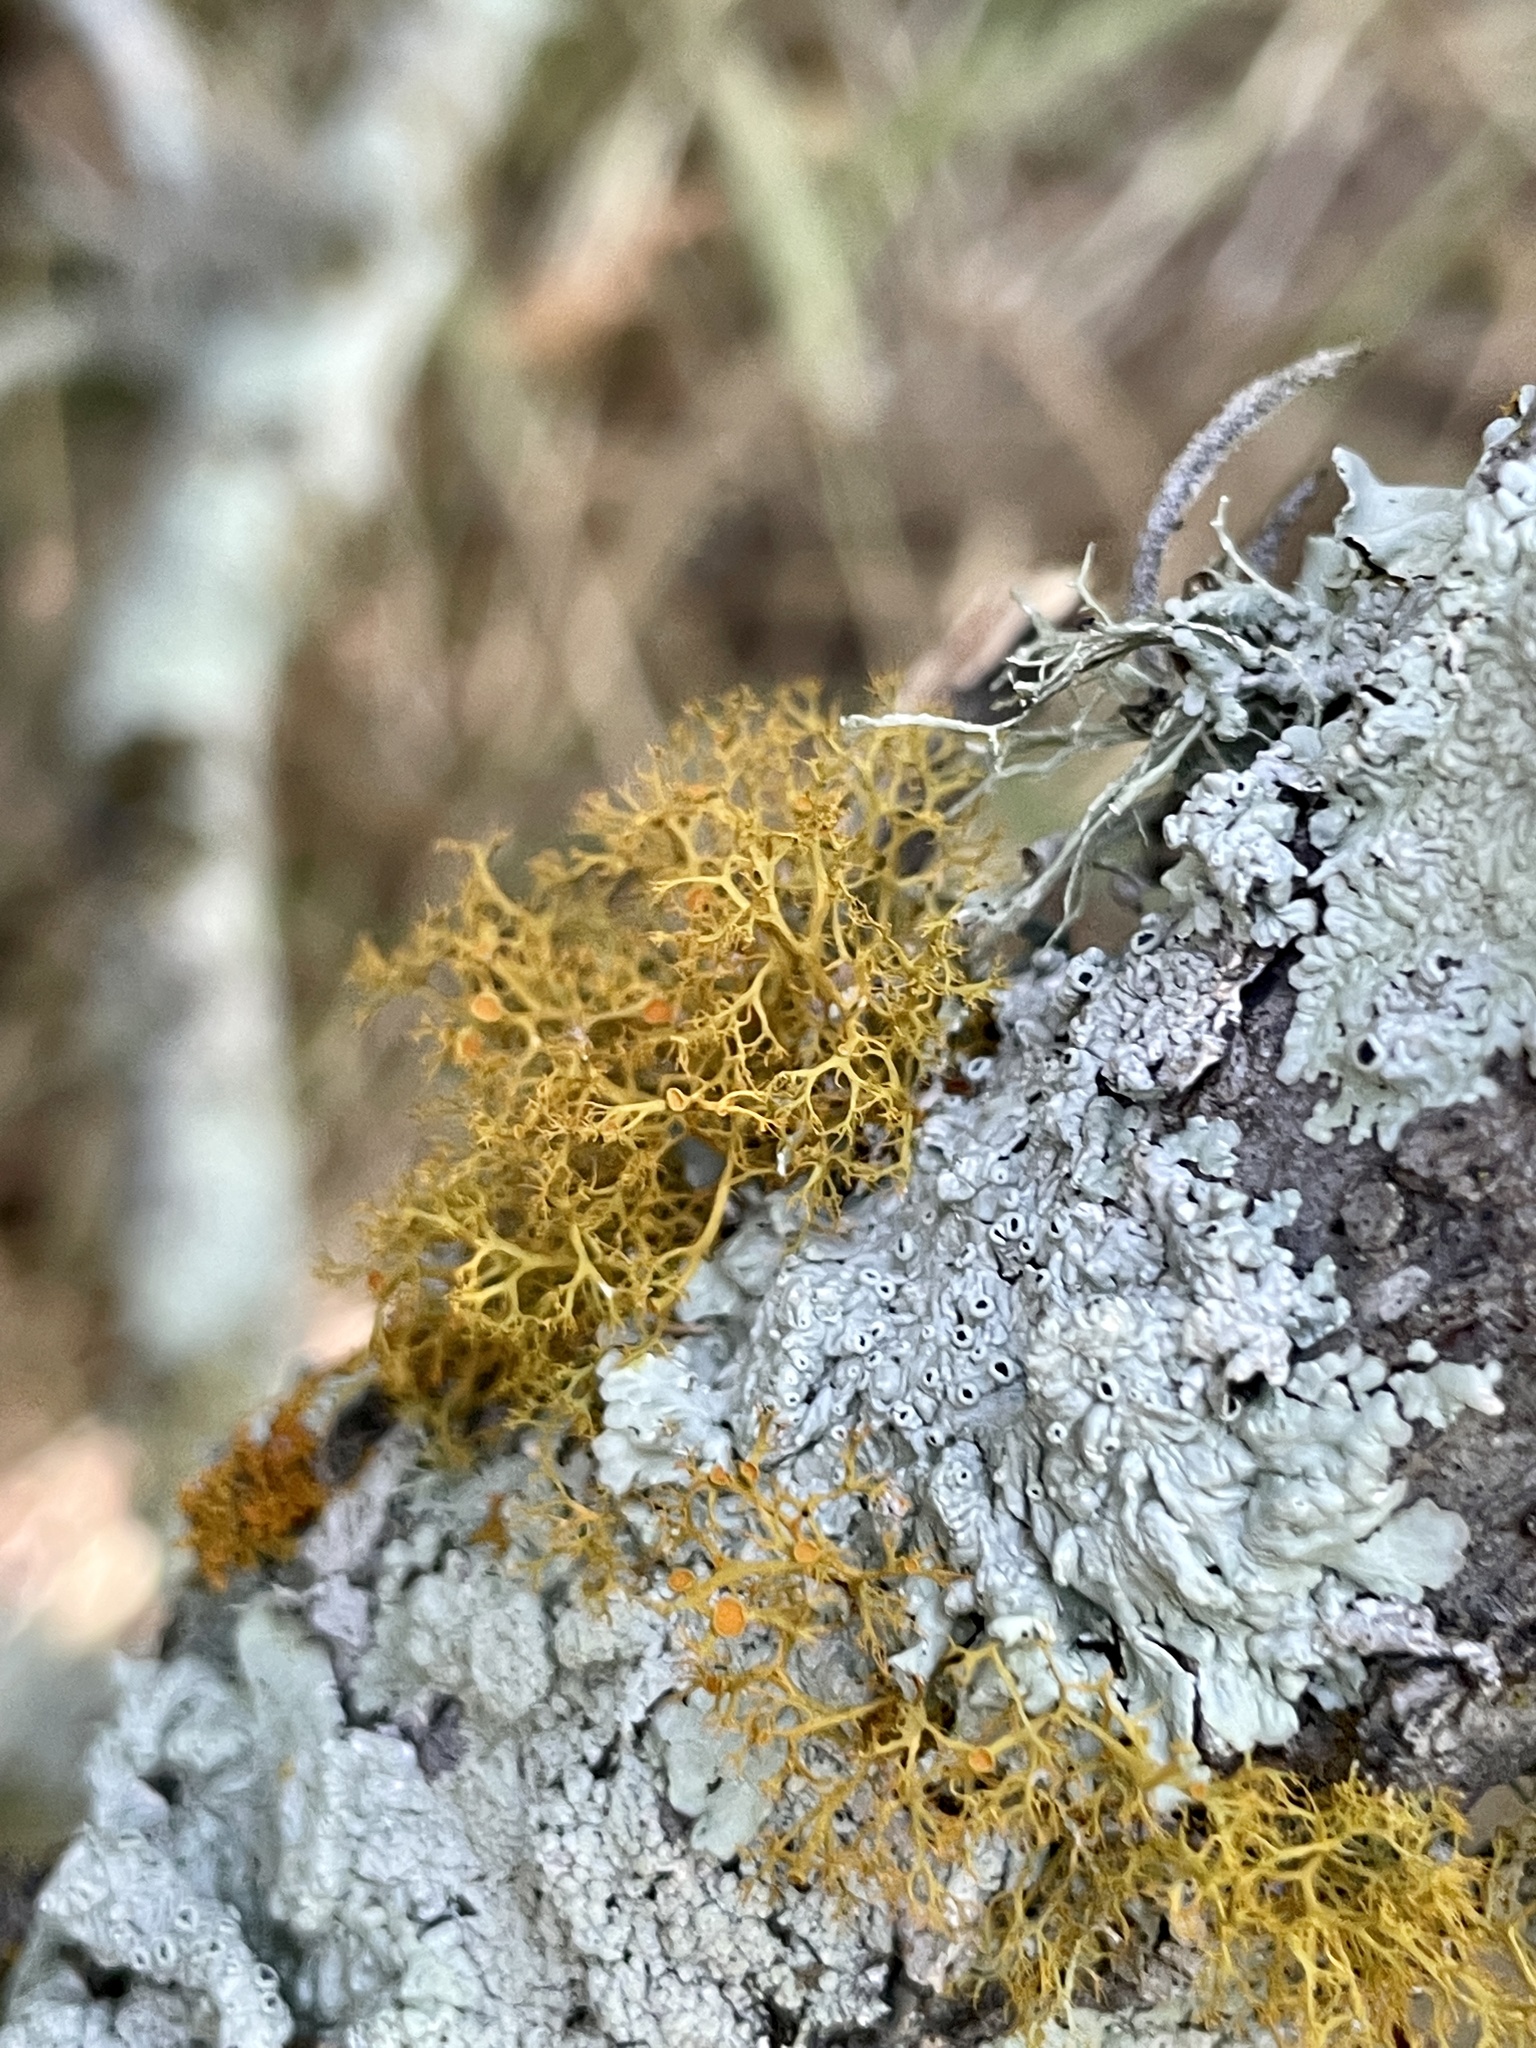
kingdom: Fungi
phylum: Ascomycota
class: Lecanoromycetes
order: Teloschistales
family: Teloschistaceae
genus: Teloschistes
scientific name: Teloschistes exilis
